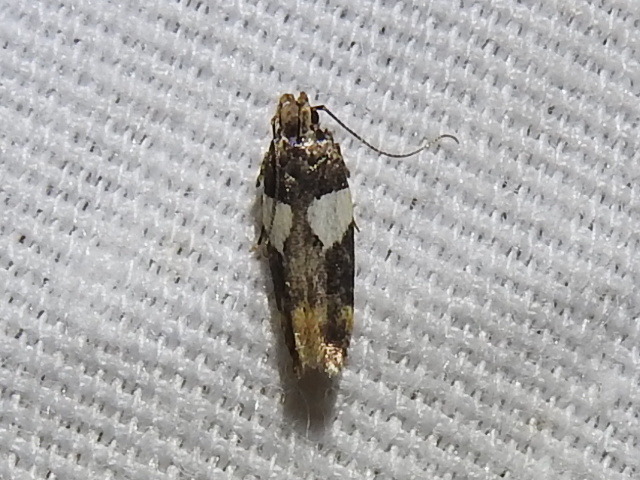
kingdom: Animalia
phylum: Arthropoda
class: Insecta
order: Lepidoptera
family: Gelechiidae
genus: Friseria
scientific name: Friseria acaciella
